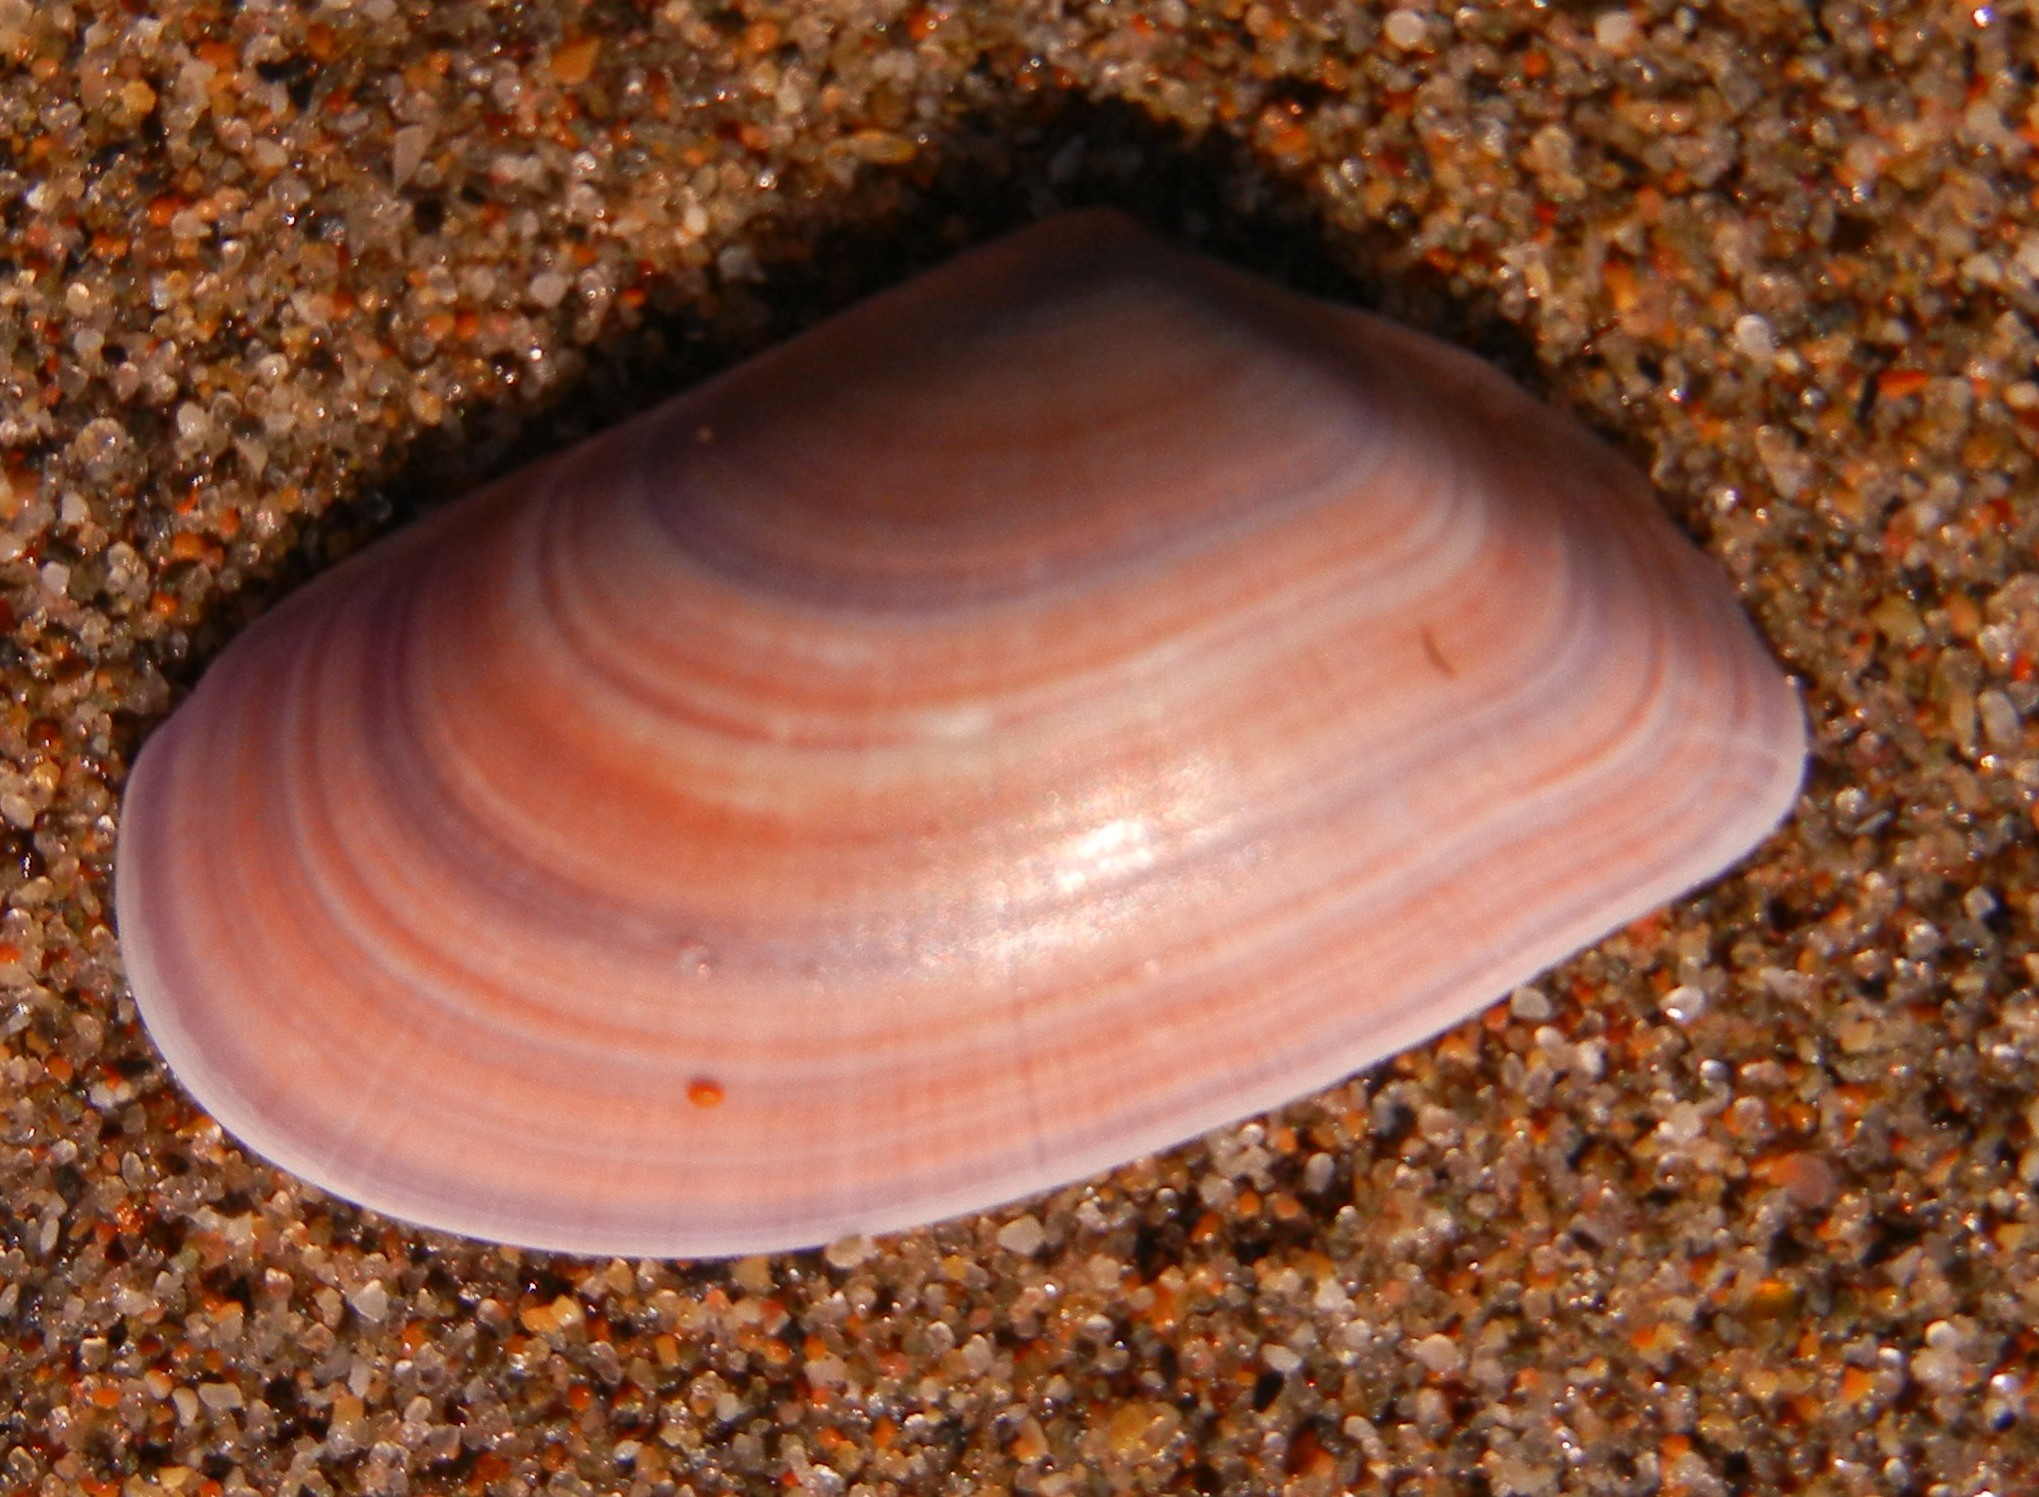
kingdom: Animalia
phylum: Mollusca
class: Bivalvia
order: Cardiida
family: Donacidae
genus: Donax
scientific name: Donax vittatus
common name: Banded wedge-shell
